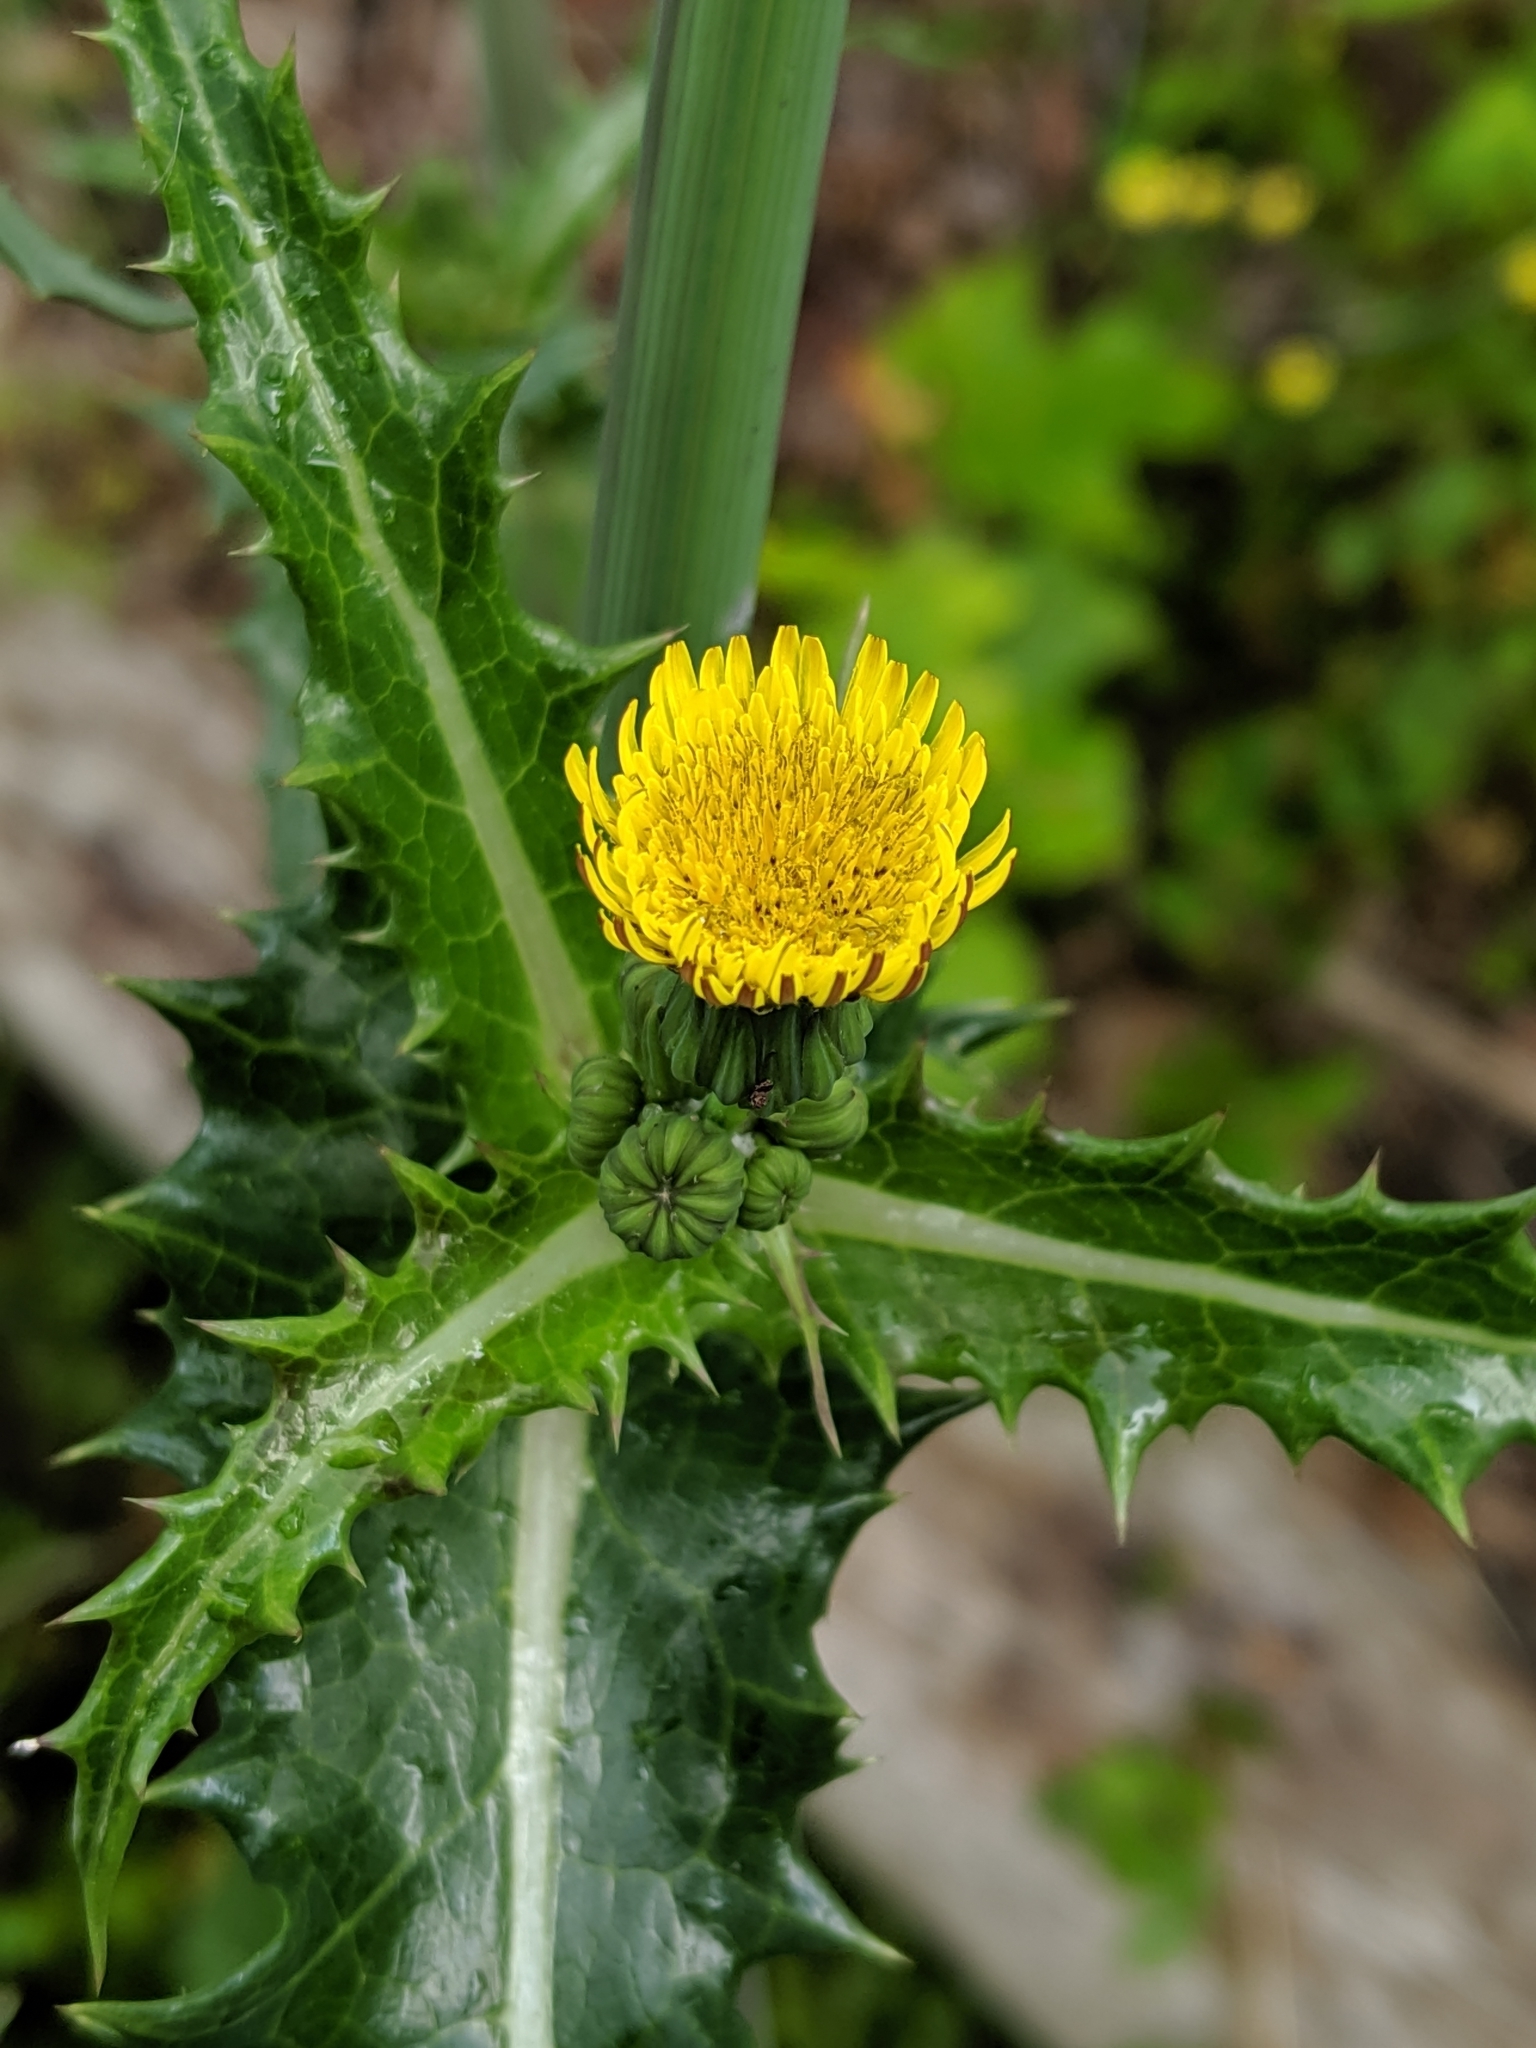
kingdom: Plantae
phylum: Tracheophyta
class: Magnoliopsida
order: Asterales
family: Asteraceae
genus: Sonchus
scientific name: Sonchus asper
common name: Prickly sow-thistle
